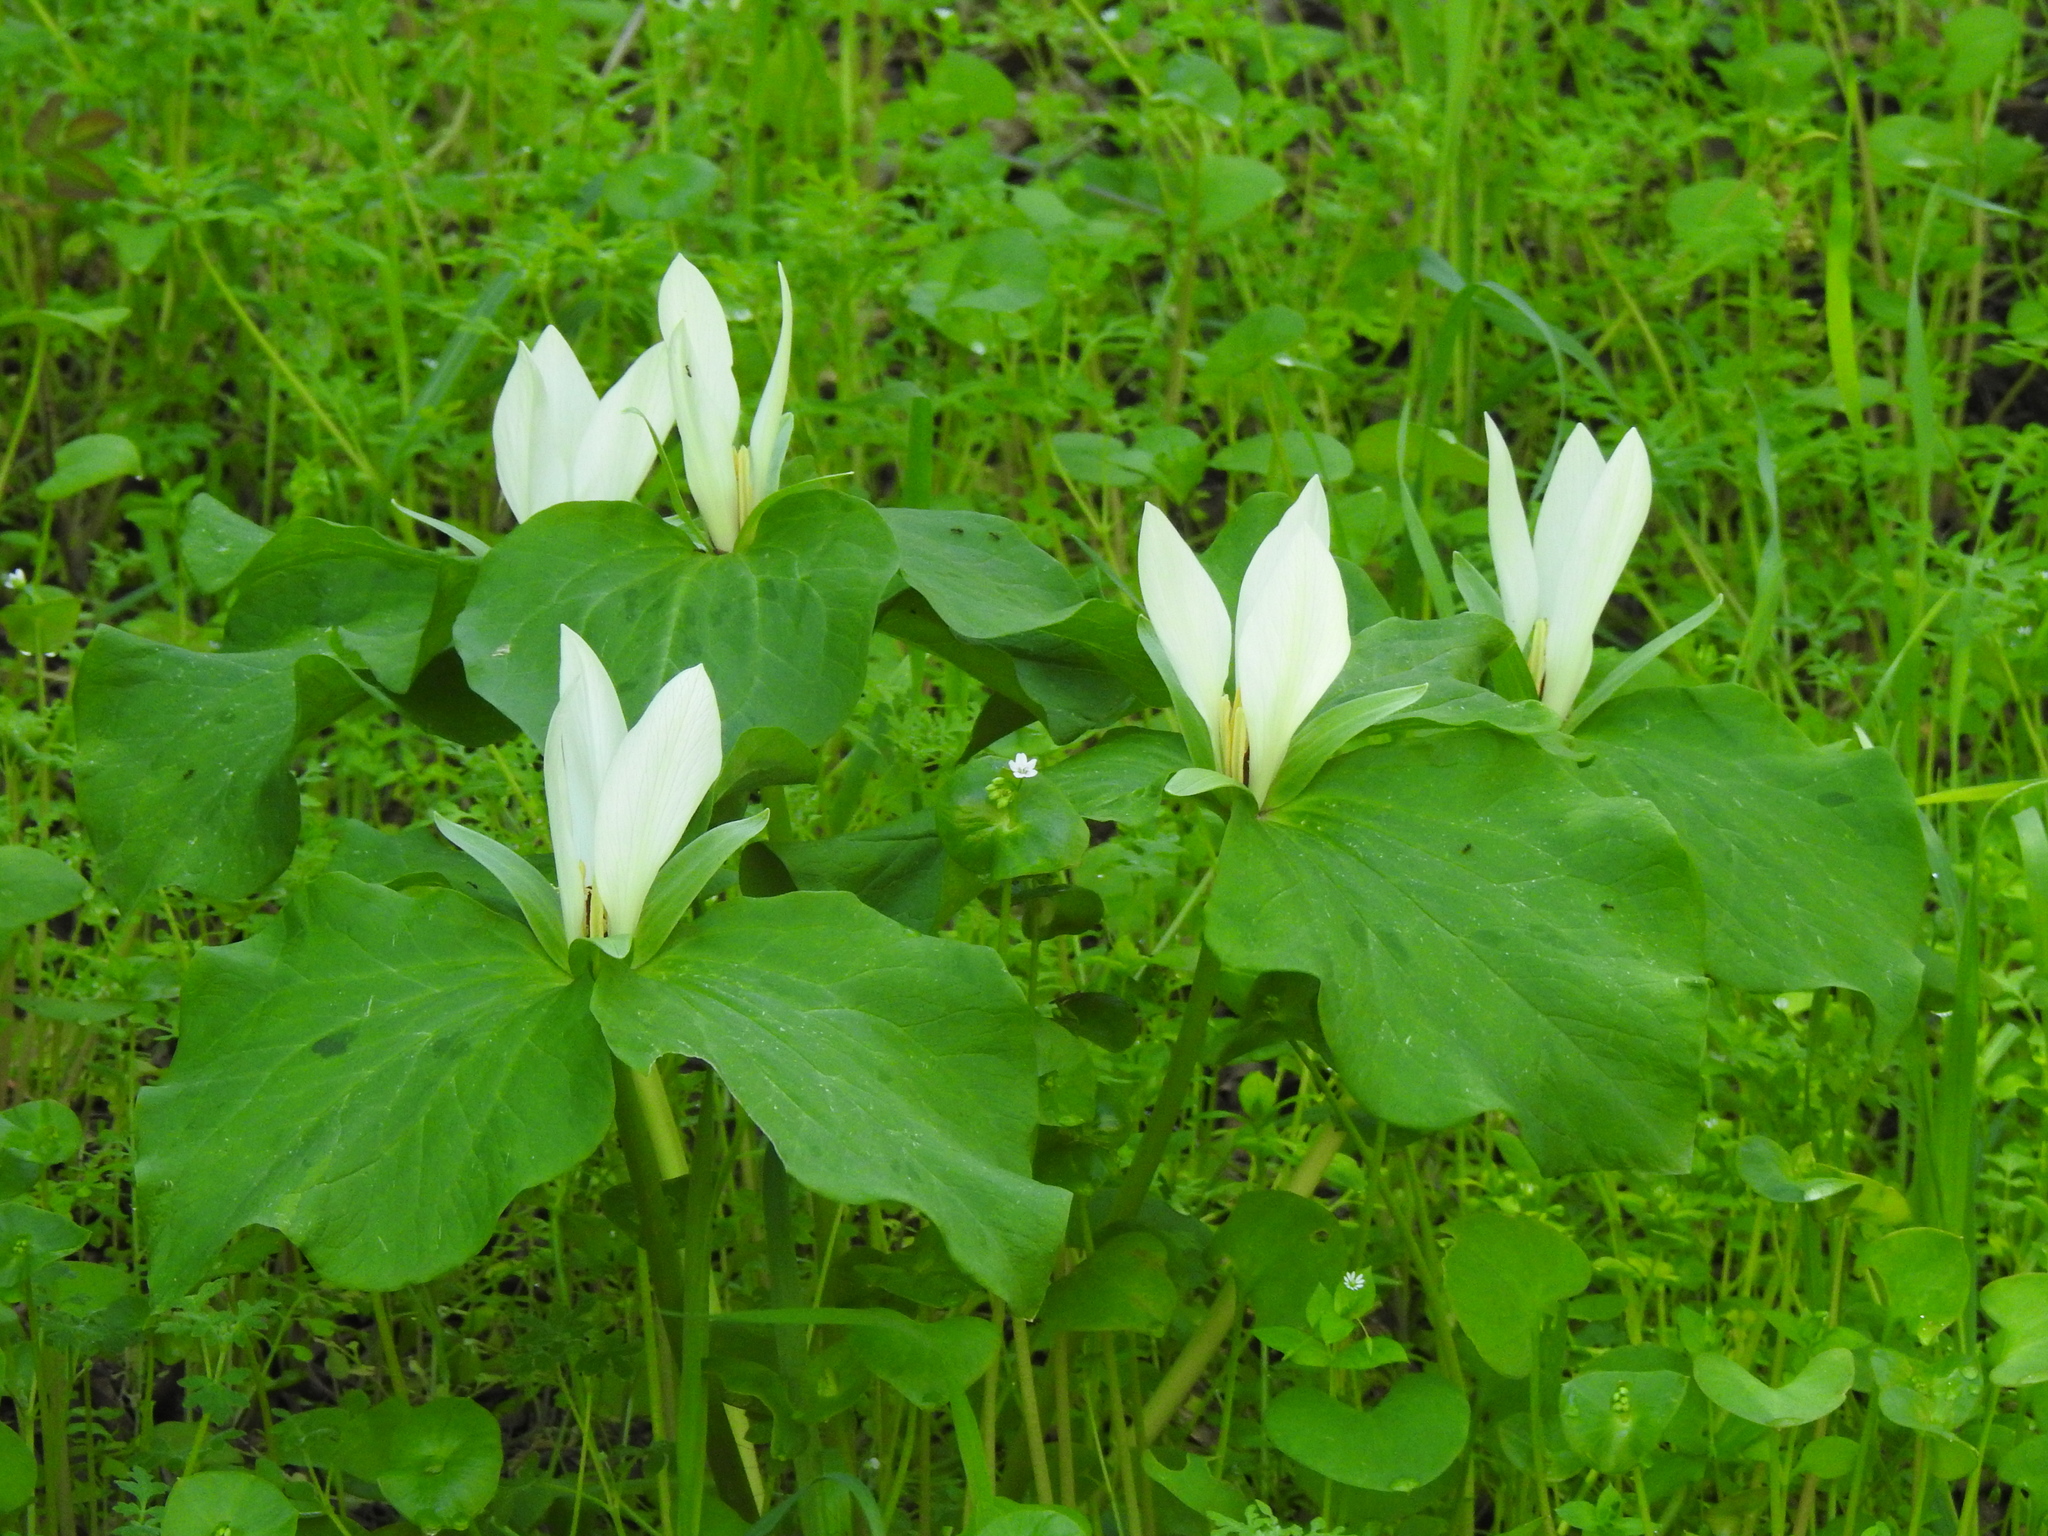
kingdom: Plantae
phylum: Tracheophyta
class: Liliopsida
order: Liliales
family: Melanthiaceae
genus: Trillium
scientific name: Trillium albidum
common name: Freeman's trillium
